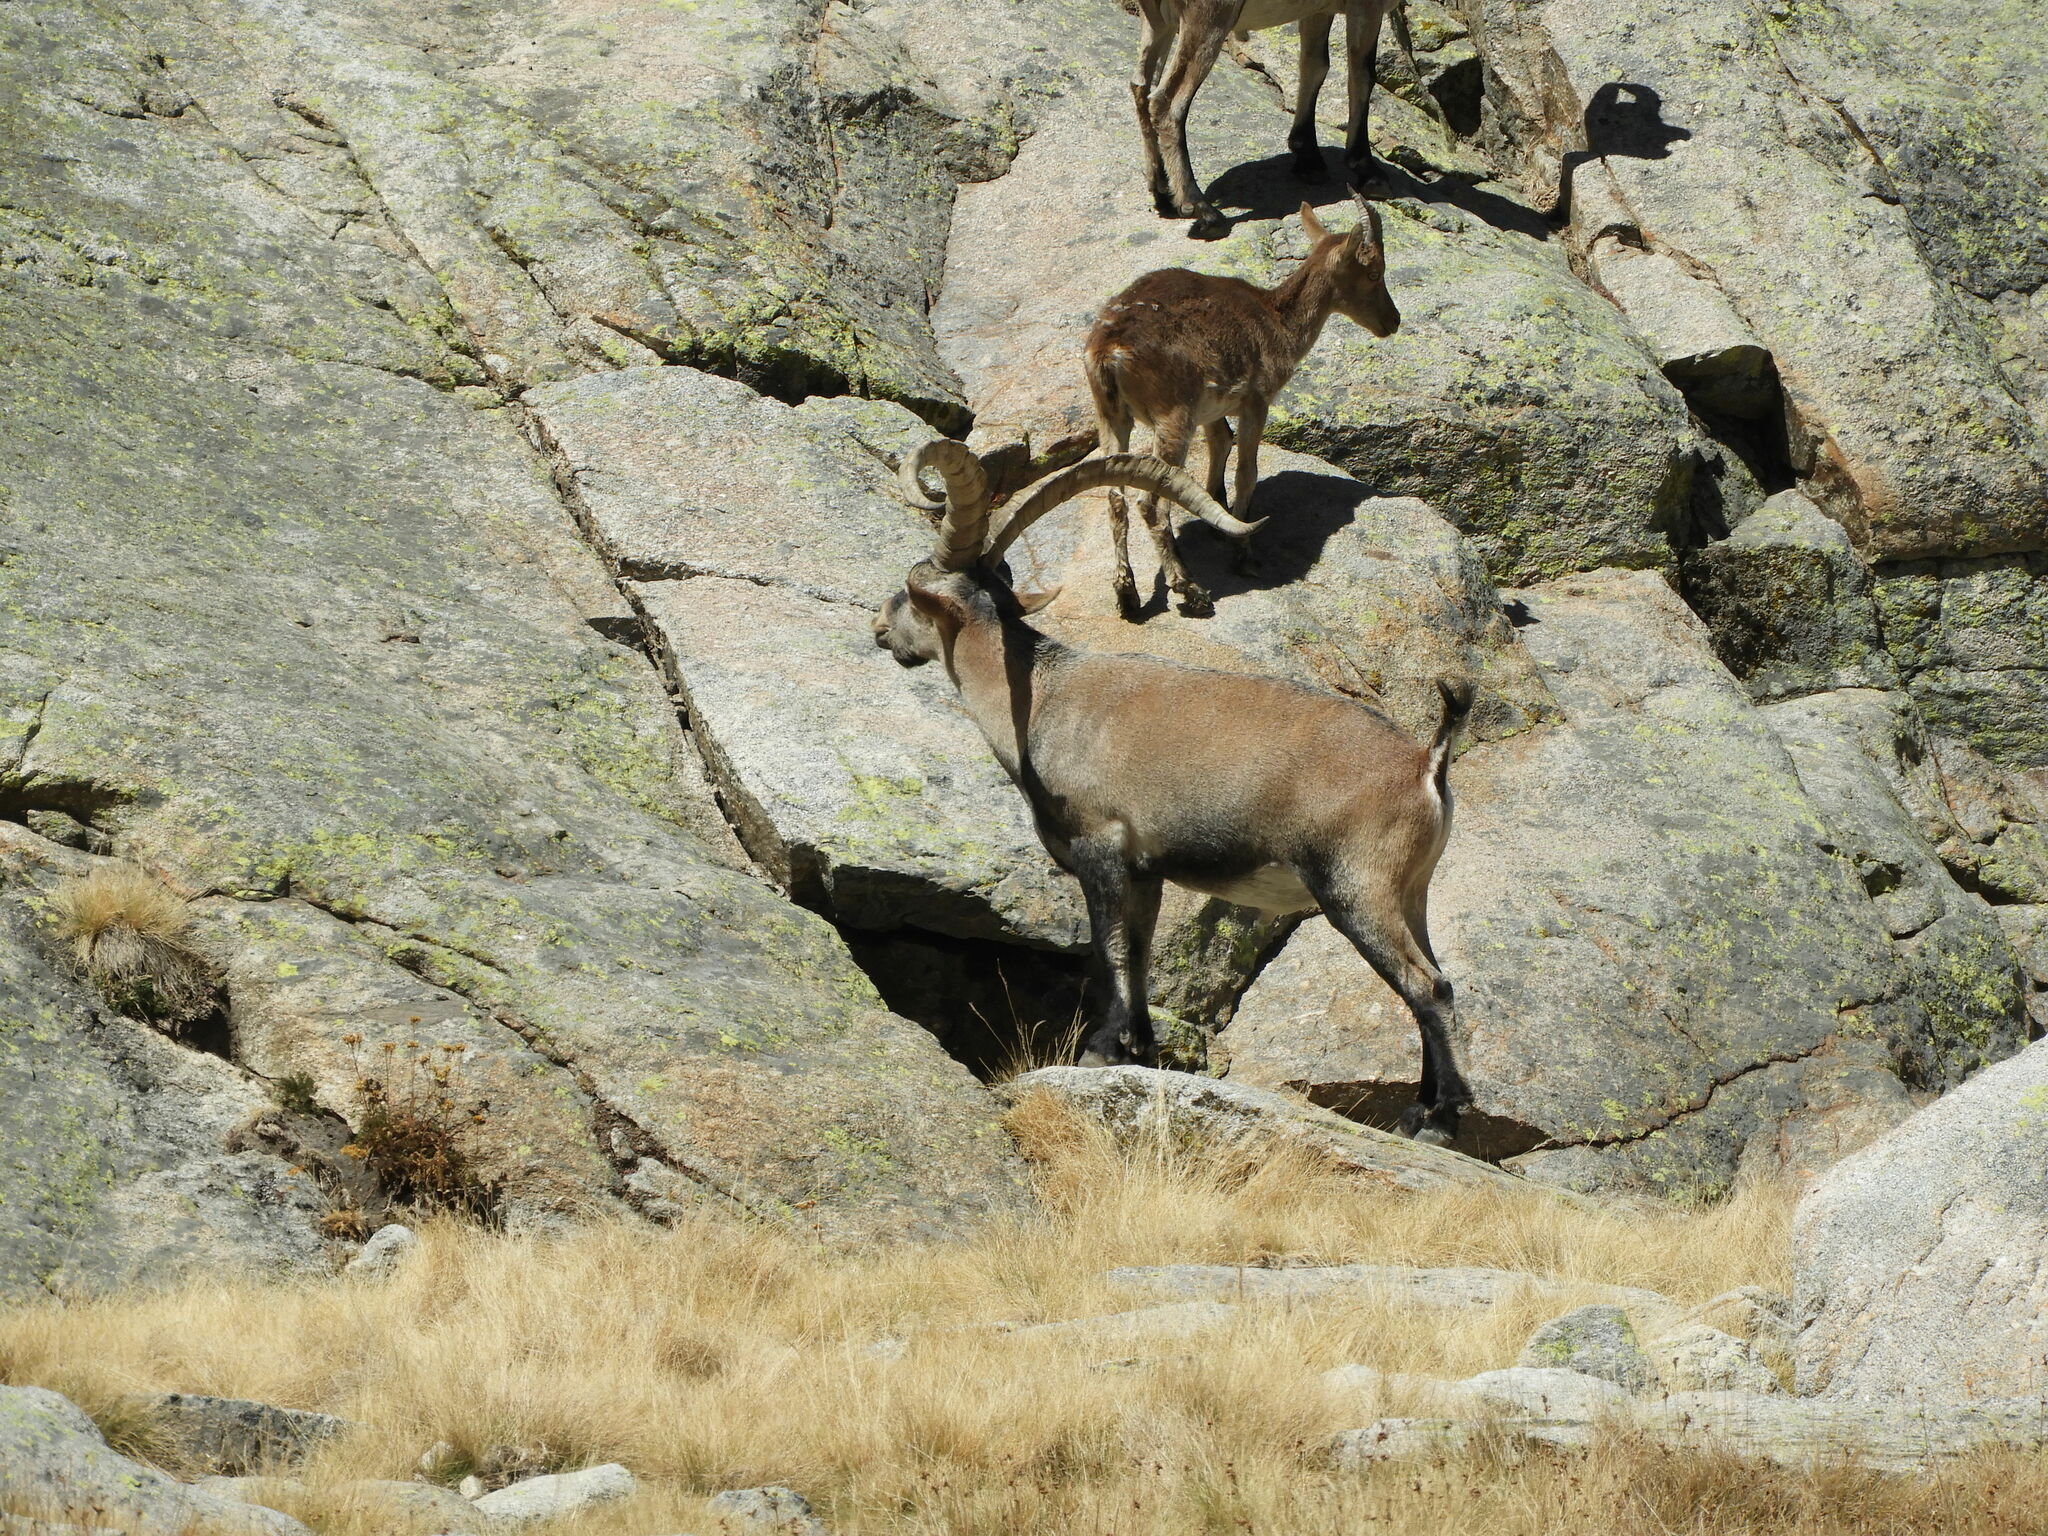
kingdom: Animalia
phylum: Chordata
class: Mammalia
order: Artiodactyla
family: Bovidae
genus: Capra
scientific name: Capra pyrenaica
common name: Spanish ibex
